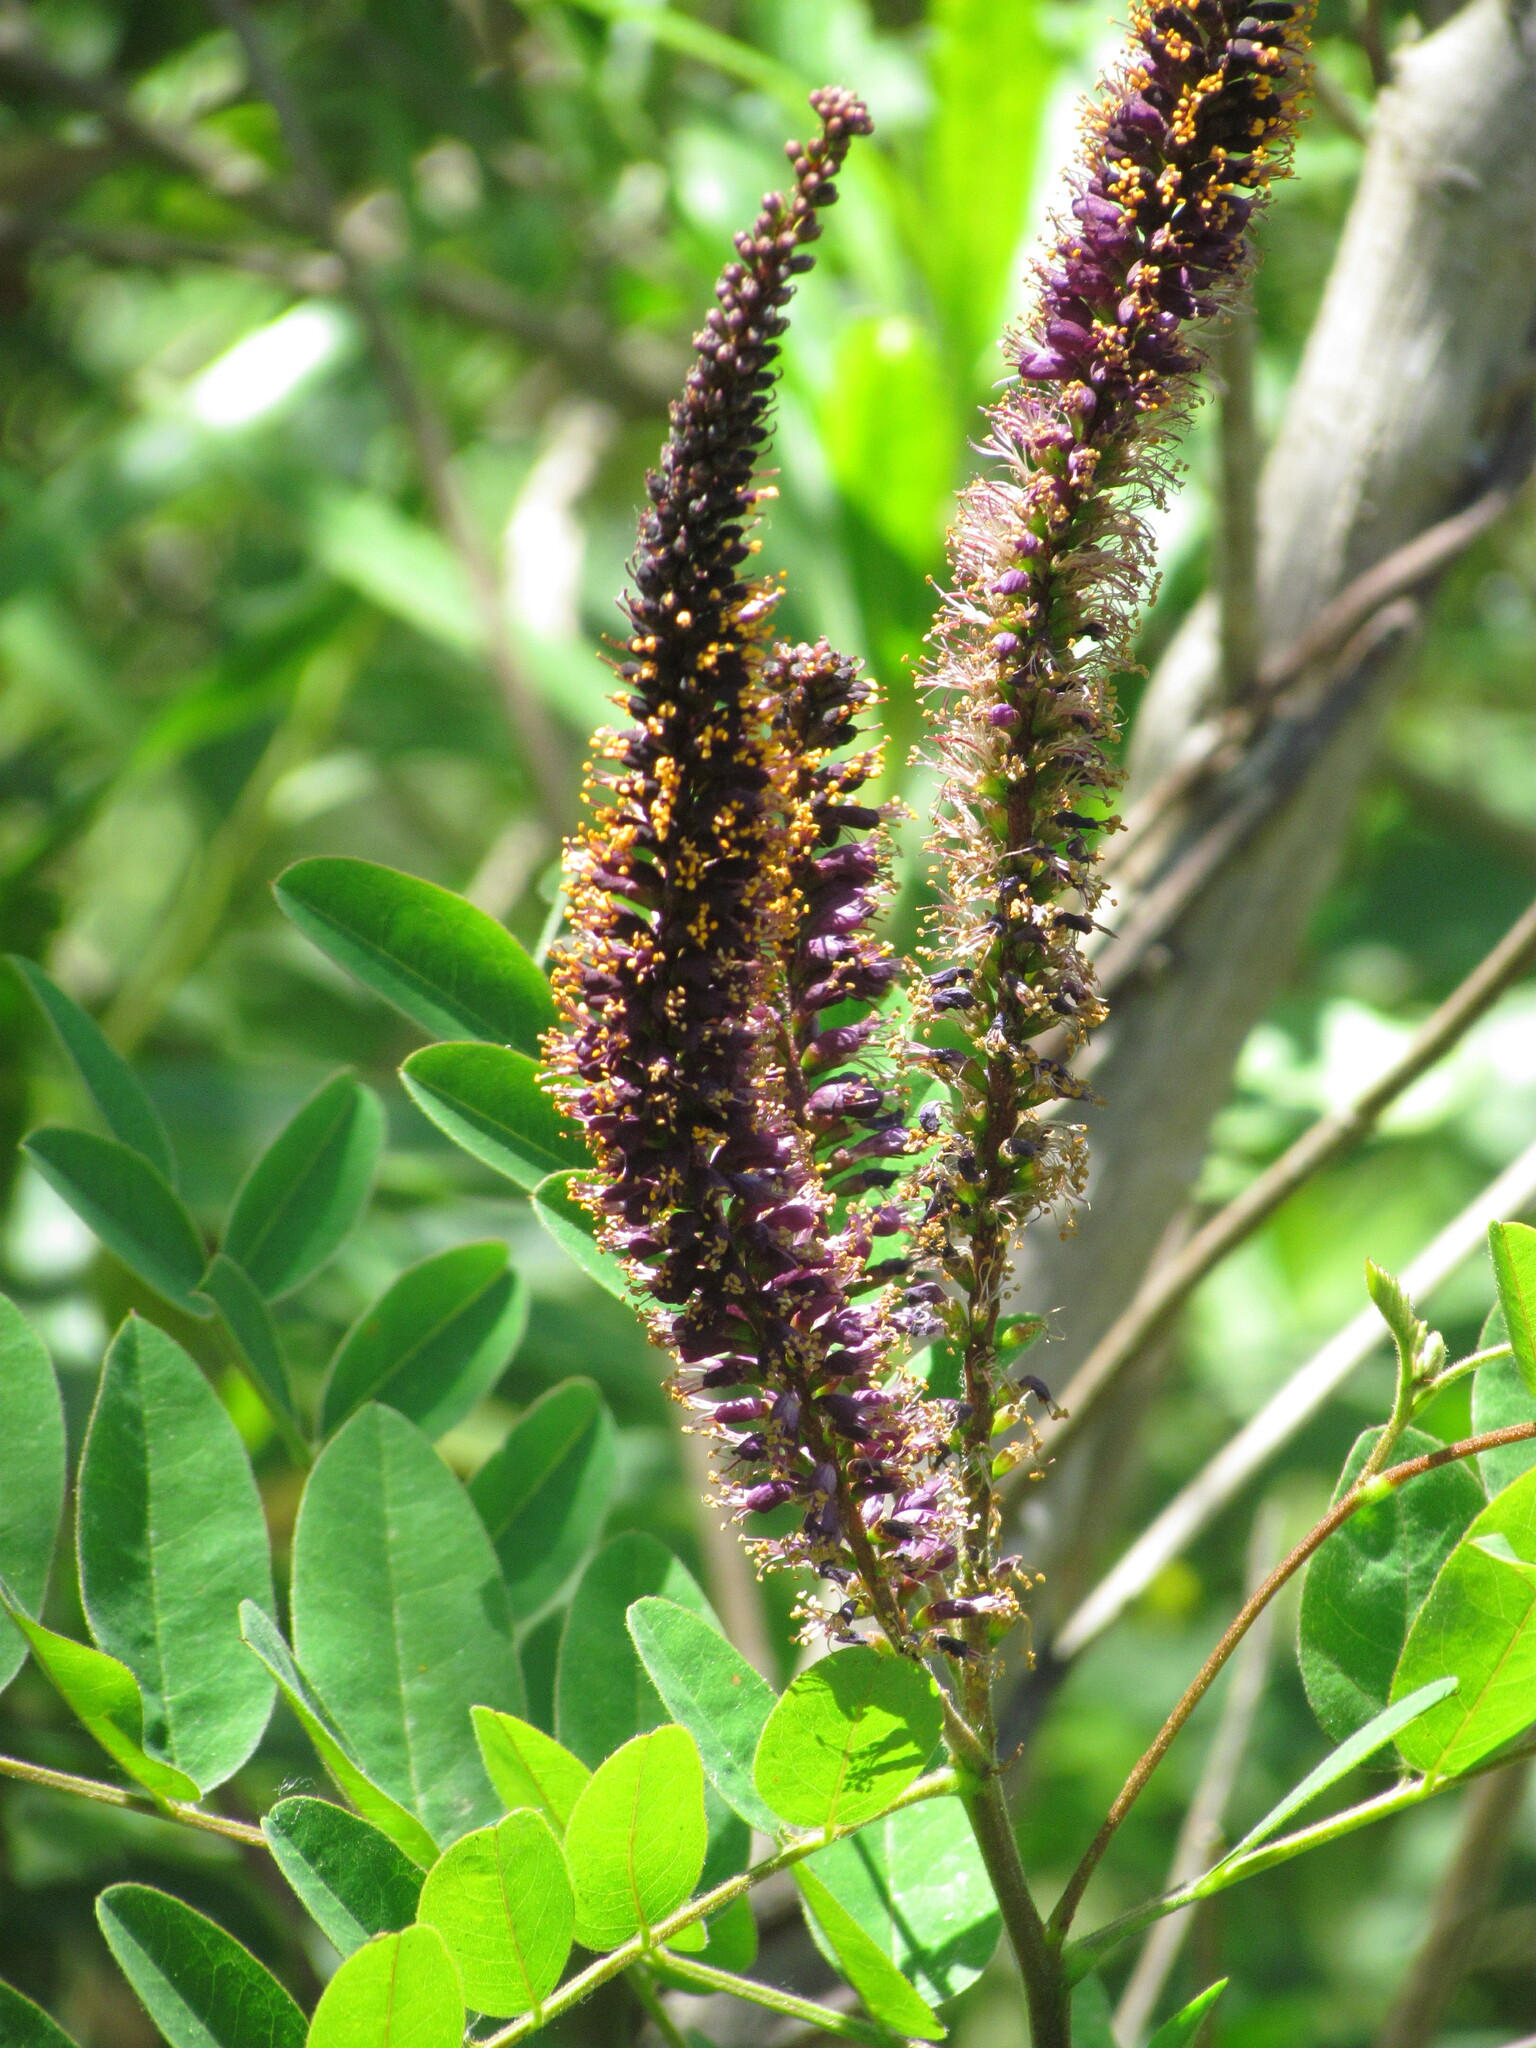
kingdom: Plantae
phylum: Tracheophyta
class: Magnoliopsida
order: Fabales
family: Fabaceae
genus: Amorpha
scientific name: Amorpha fruticosa
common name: False indigo
